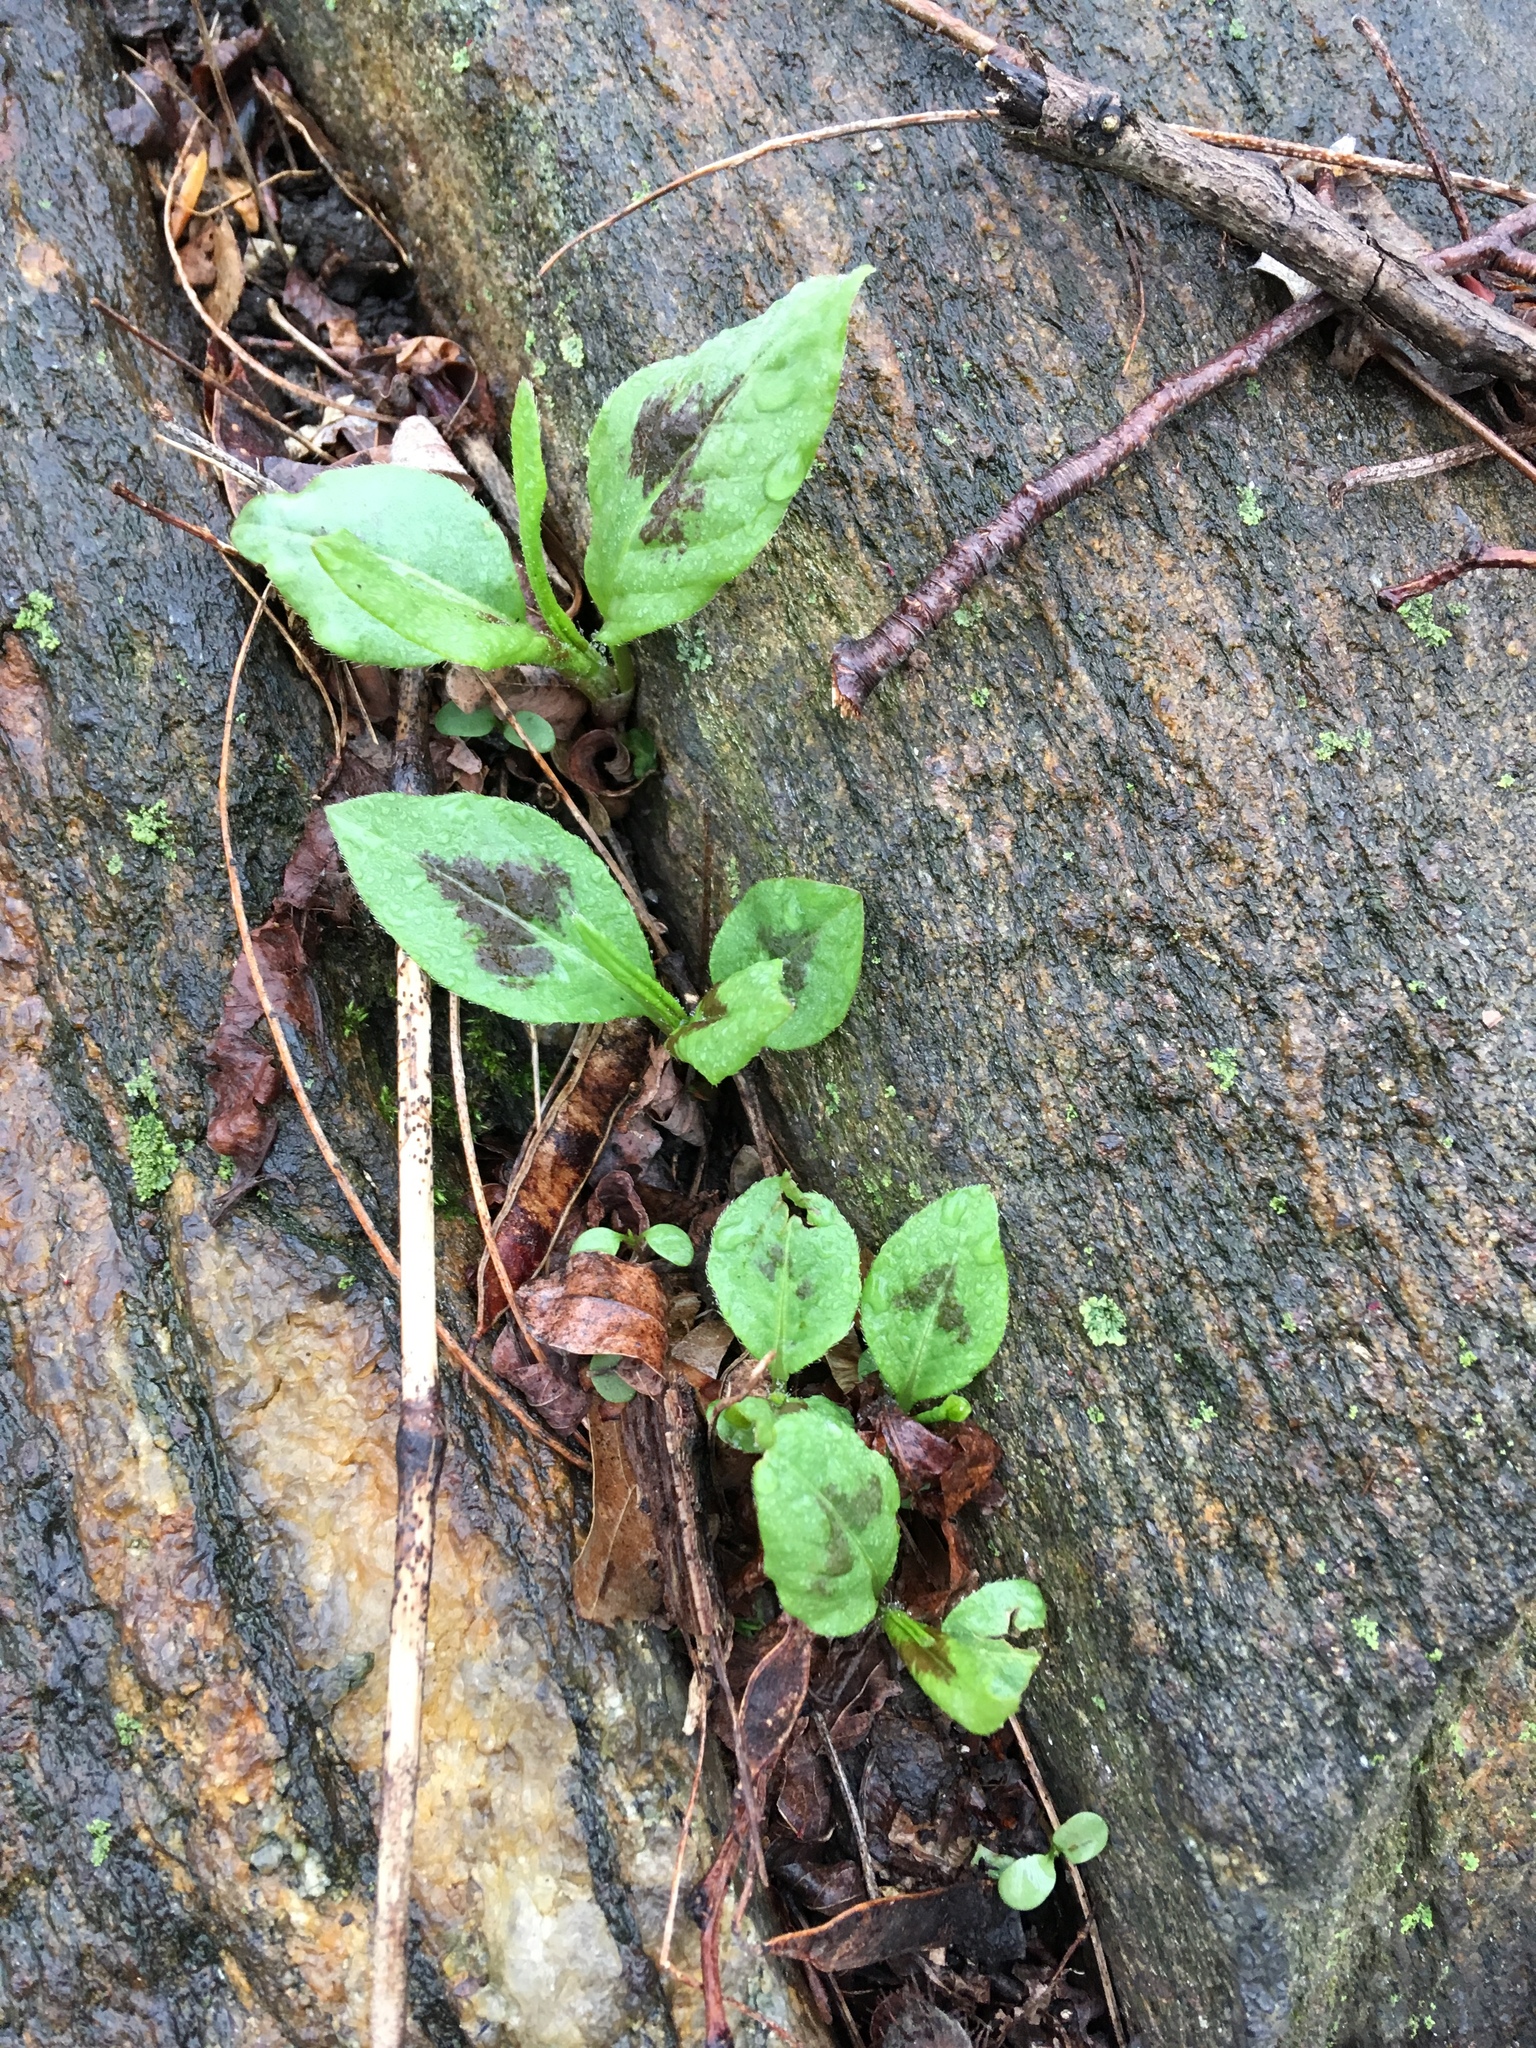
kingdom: Plantae
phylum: Tracheophyta
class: Magnoliopsida
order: Caryophyllales
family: Polygonaceae
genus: Persicaria
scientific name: Persicaria virginiana
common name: Jumpseed
